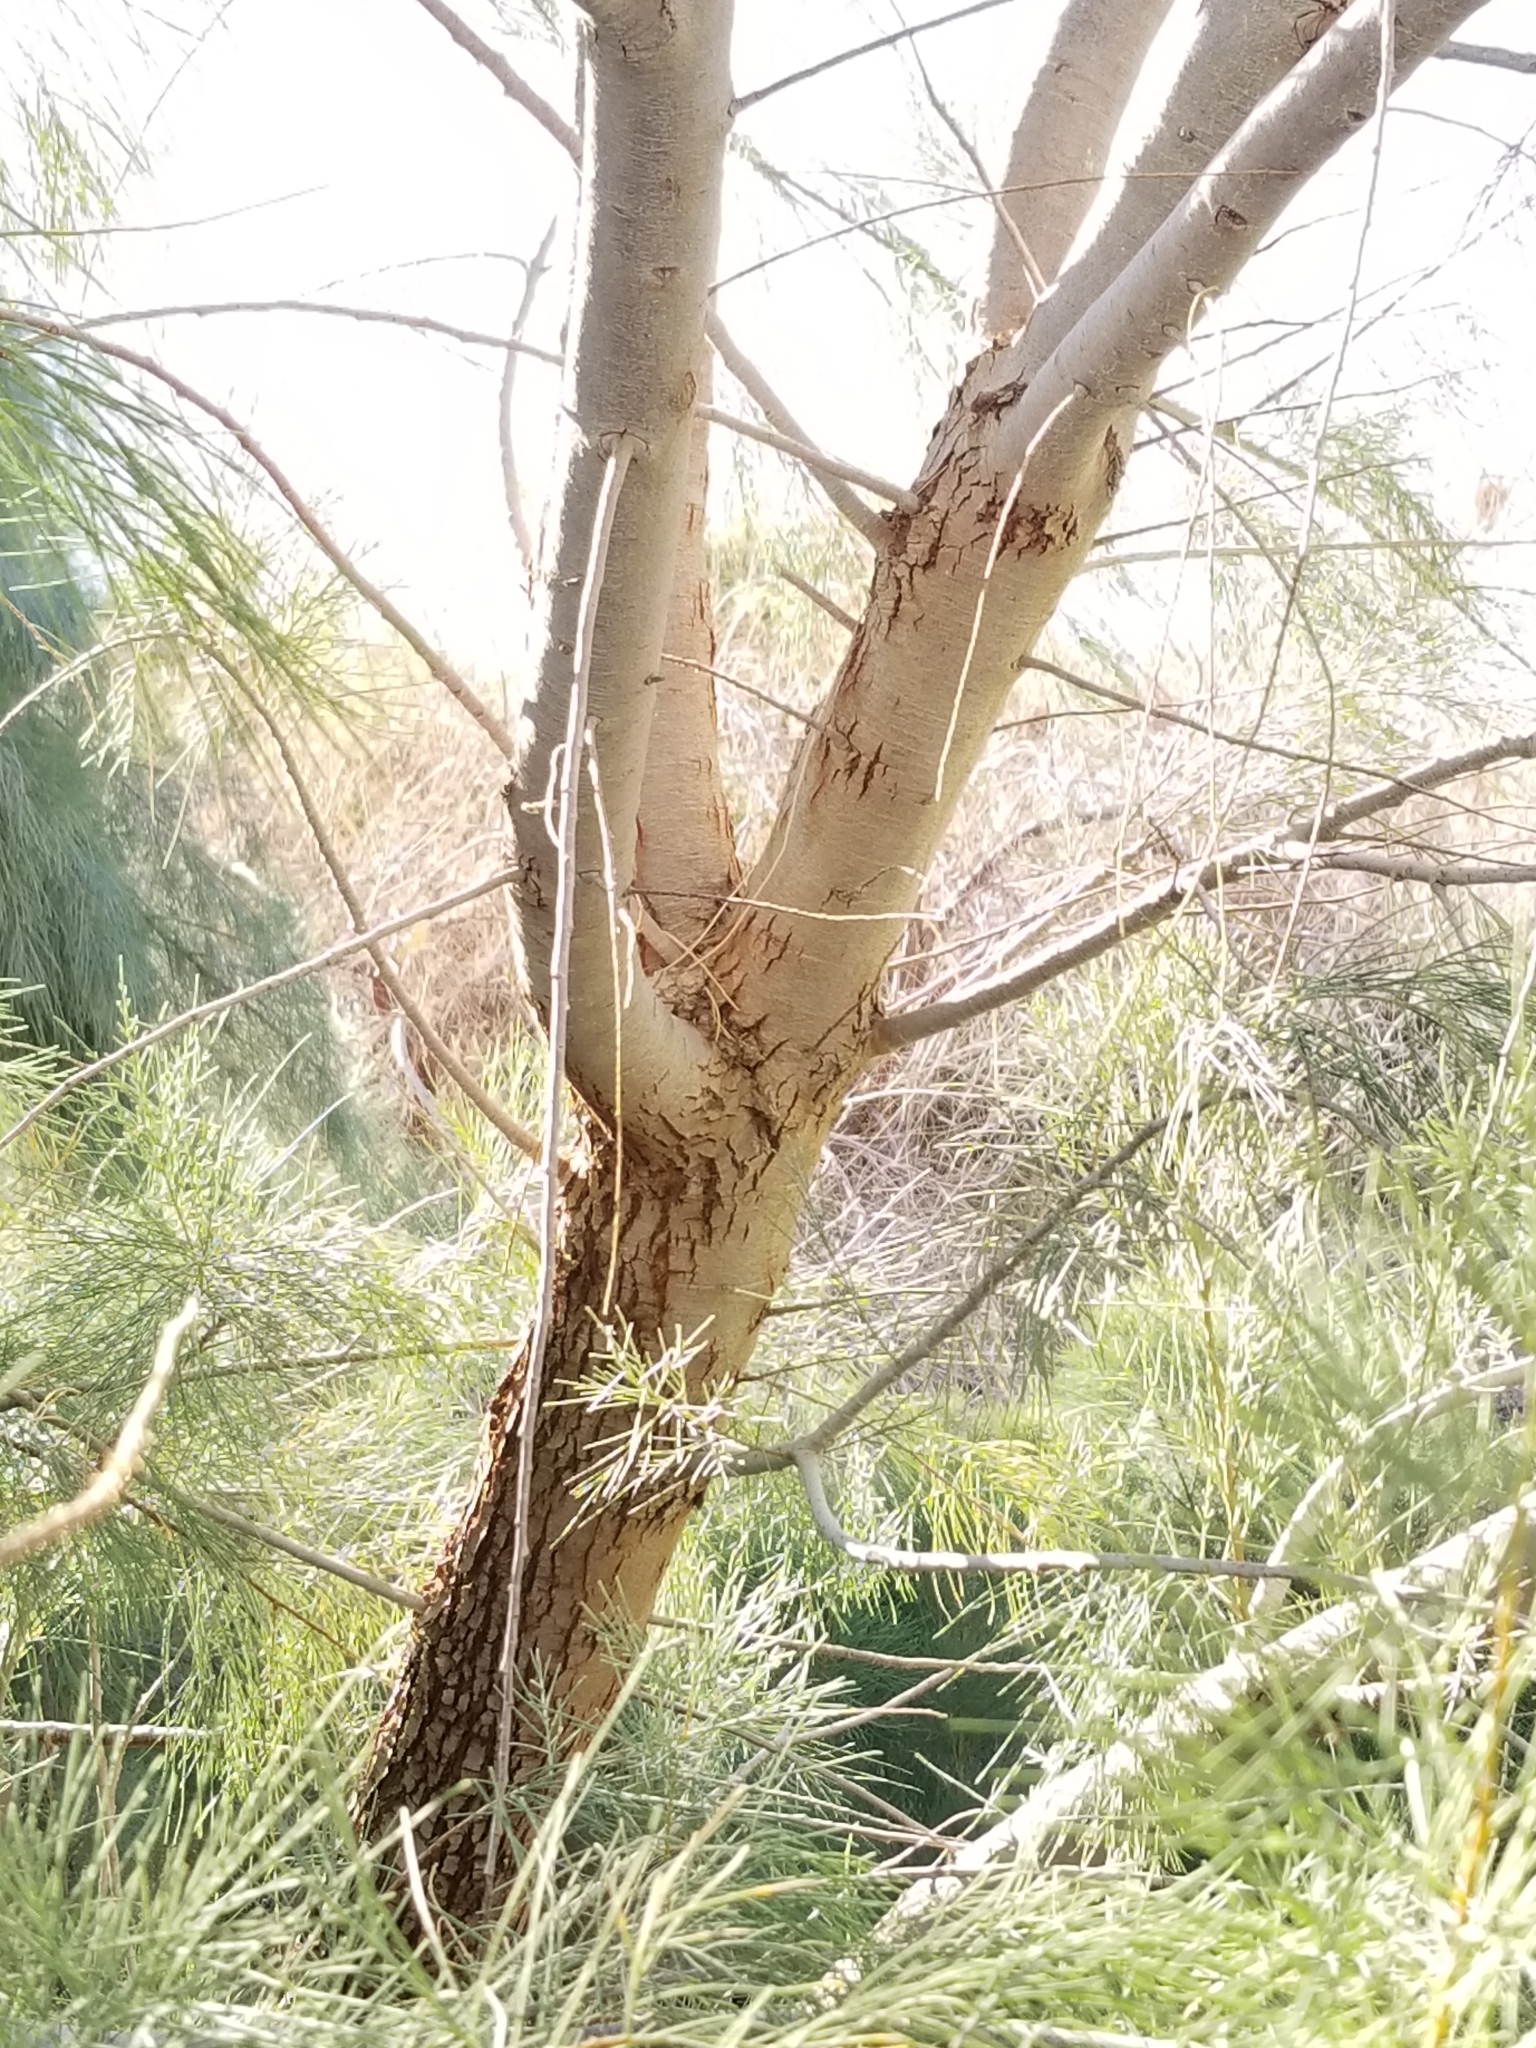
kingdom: Plantae
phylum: Tracheophyta
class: Magnoliopsida
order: Caryophyllales
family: Tamaricaceae
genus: Tamarix
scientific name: Tamarix aphylla
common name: Athel tamarisk
